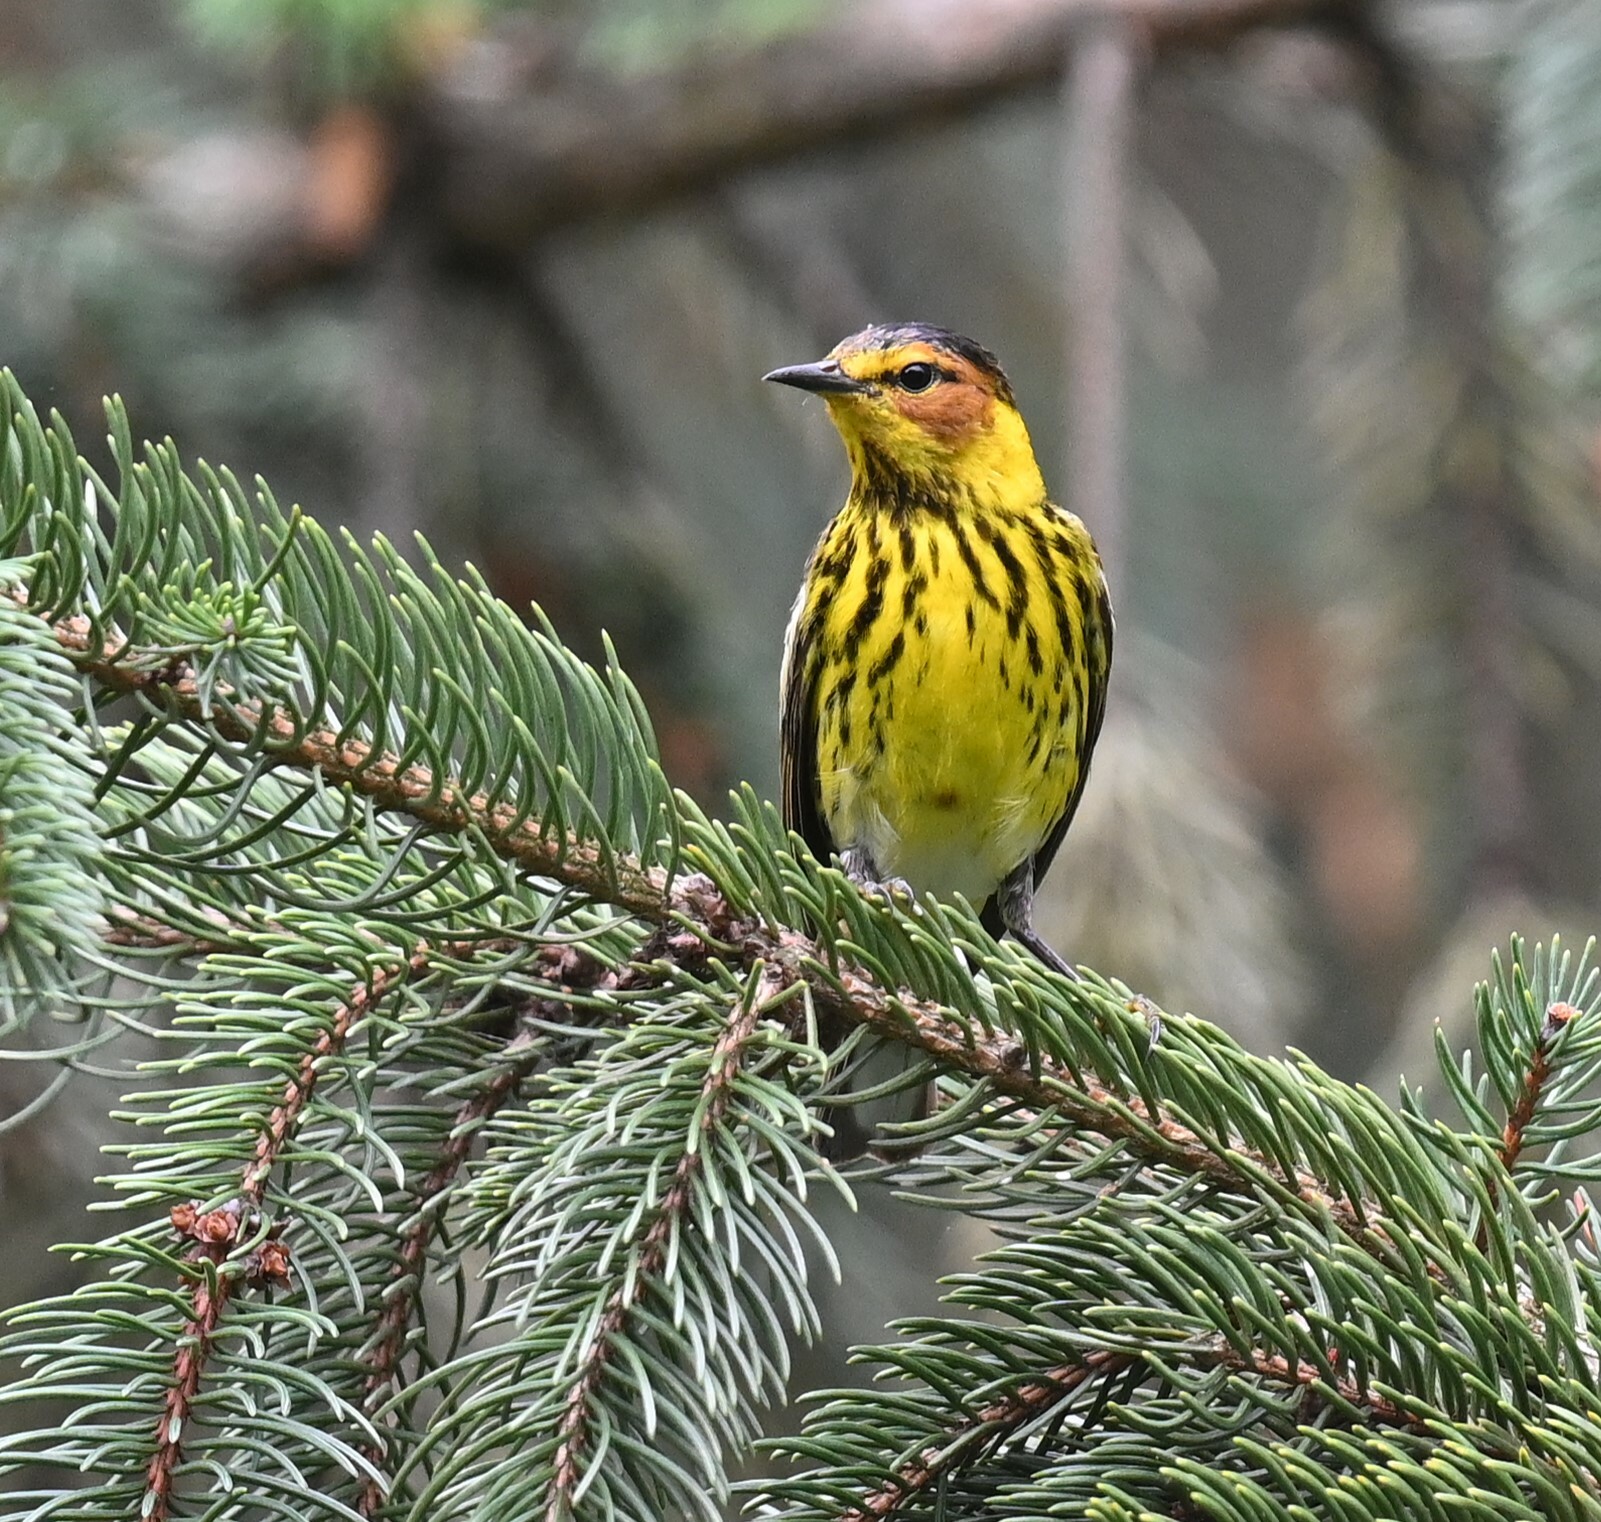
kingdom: Animalia
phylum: Chordata
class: Aves
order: Passeriformes
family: Parulidae
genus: Setophaga
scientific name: Setophaga tigrina
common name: Cape may warbler
